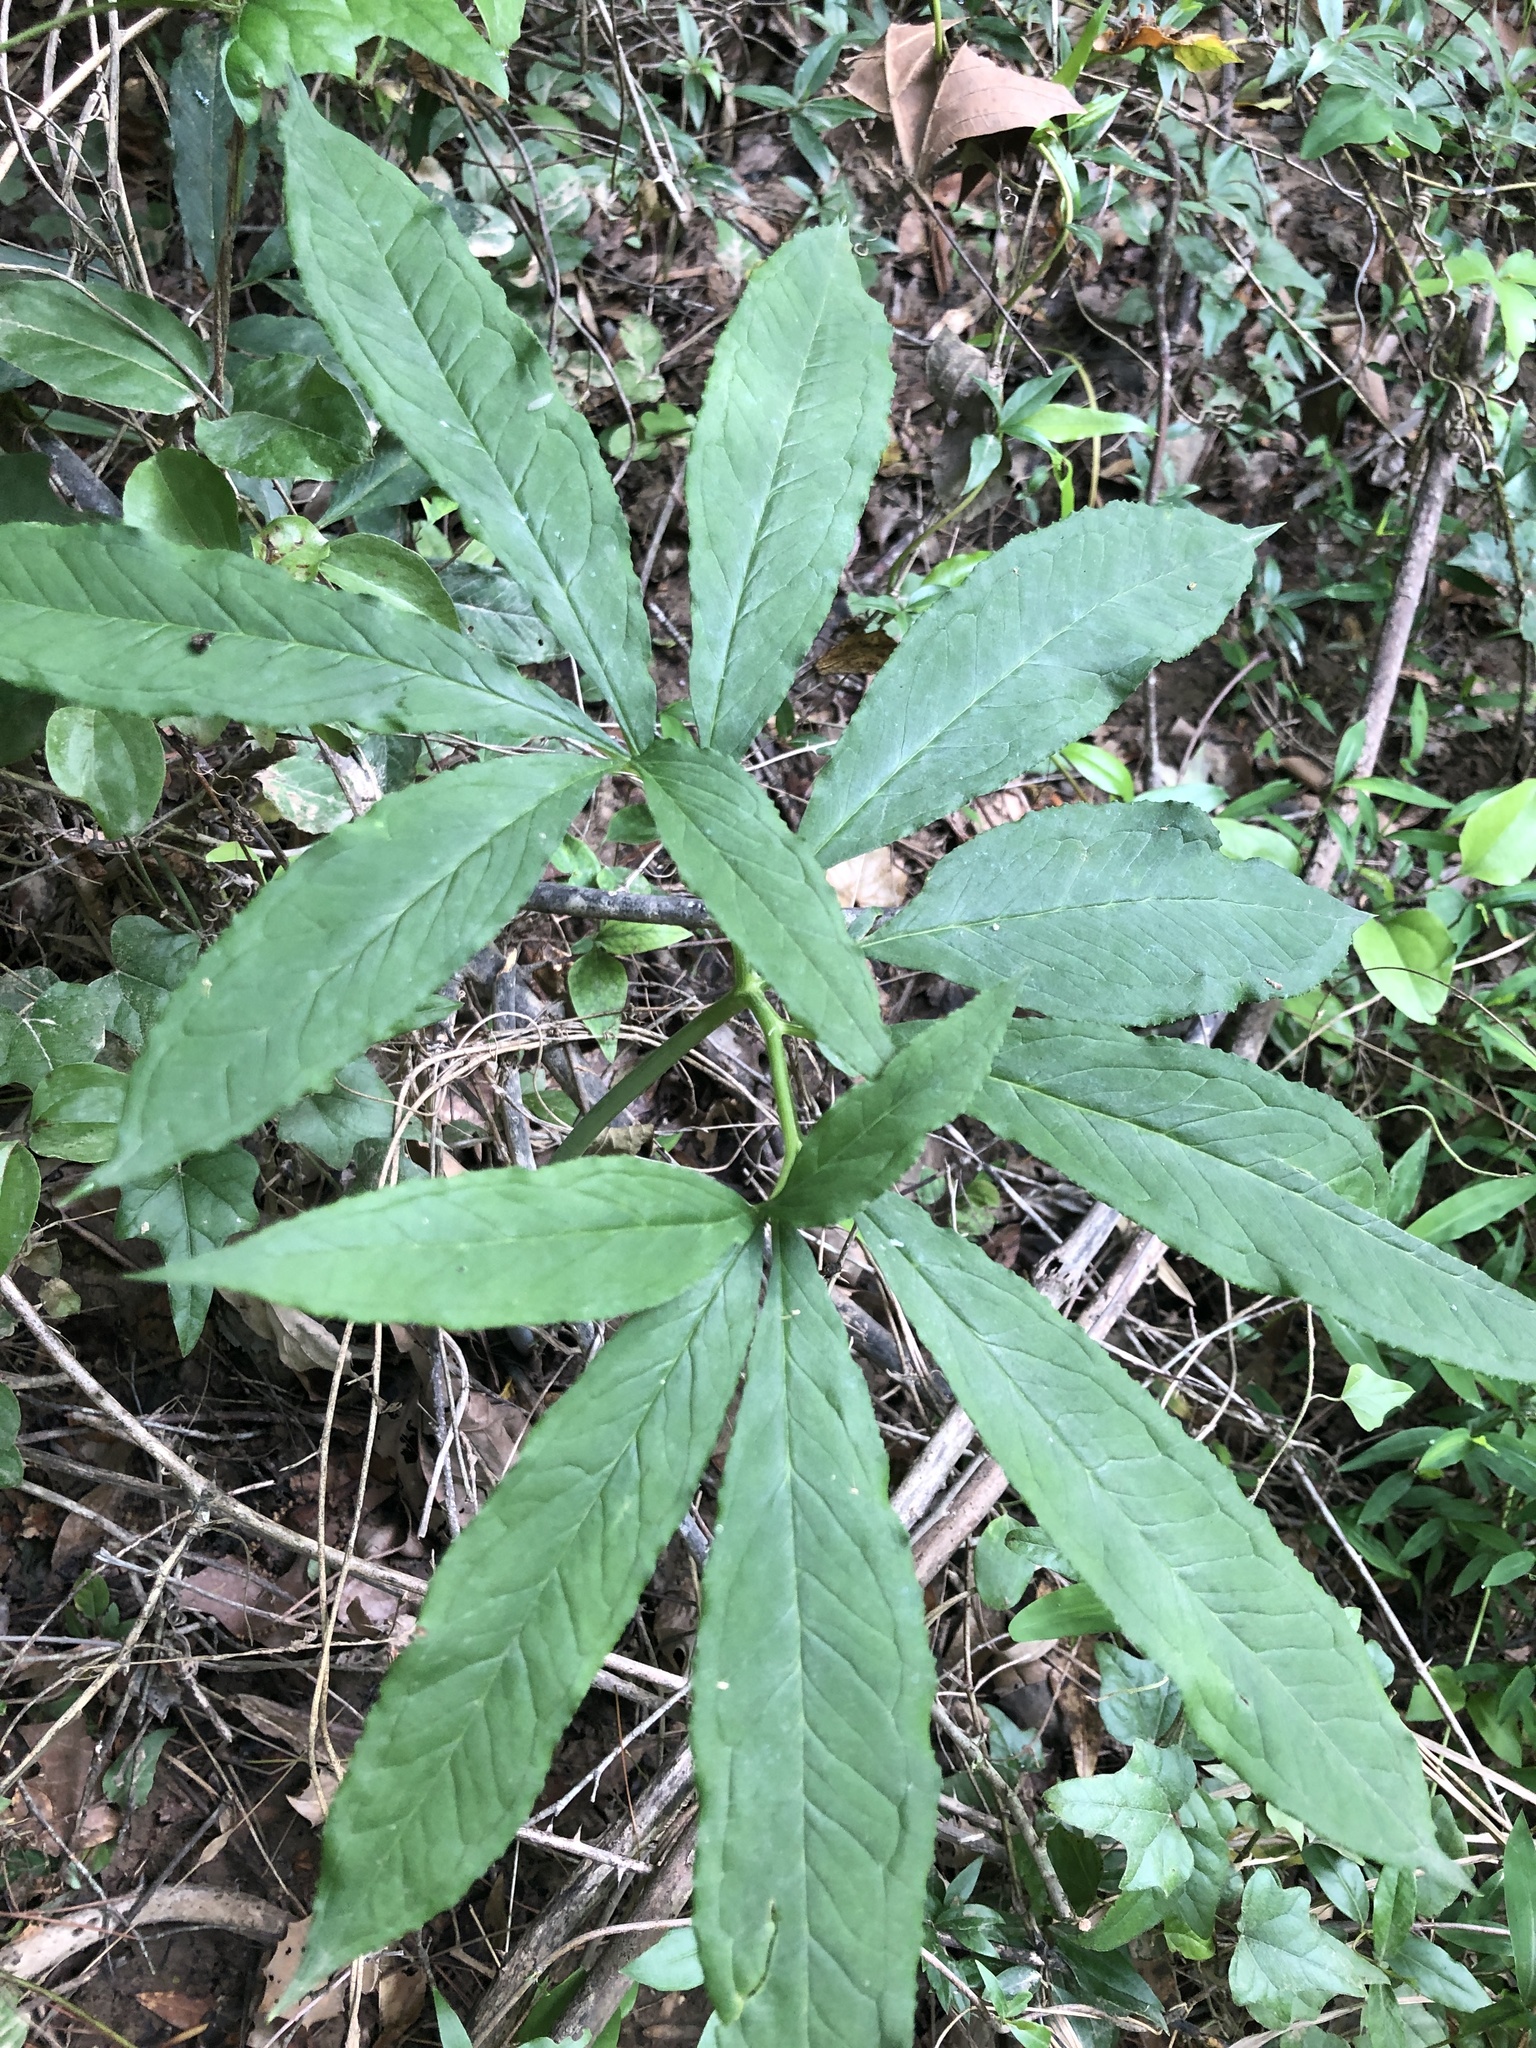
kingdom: Plantae
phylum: Tracheophyta
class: Liliopsida
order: Alismatales
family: Araceae
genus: Arisaema
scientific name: Arisaema dracontium
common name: Dragon-arum
